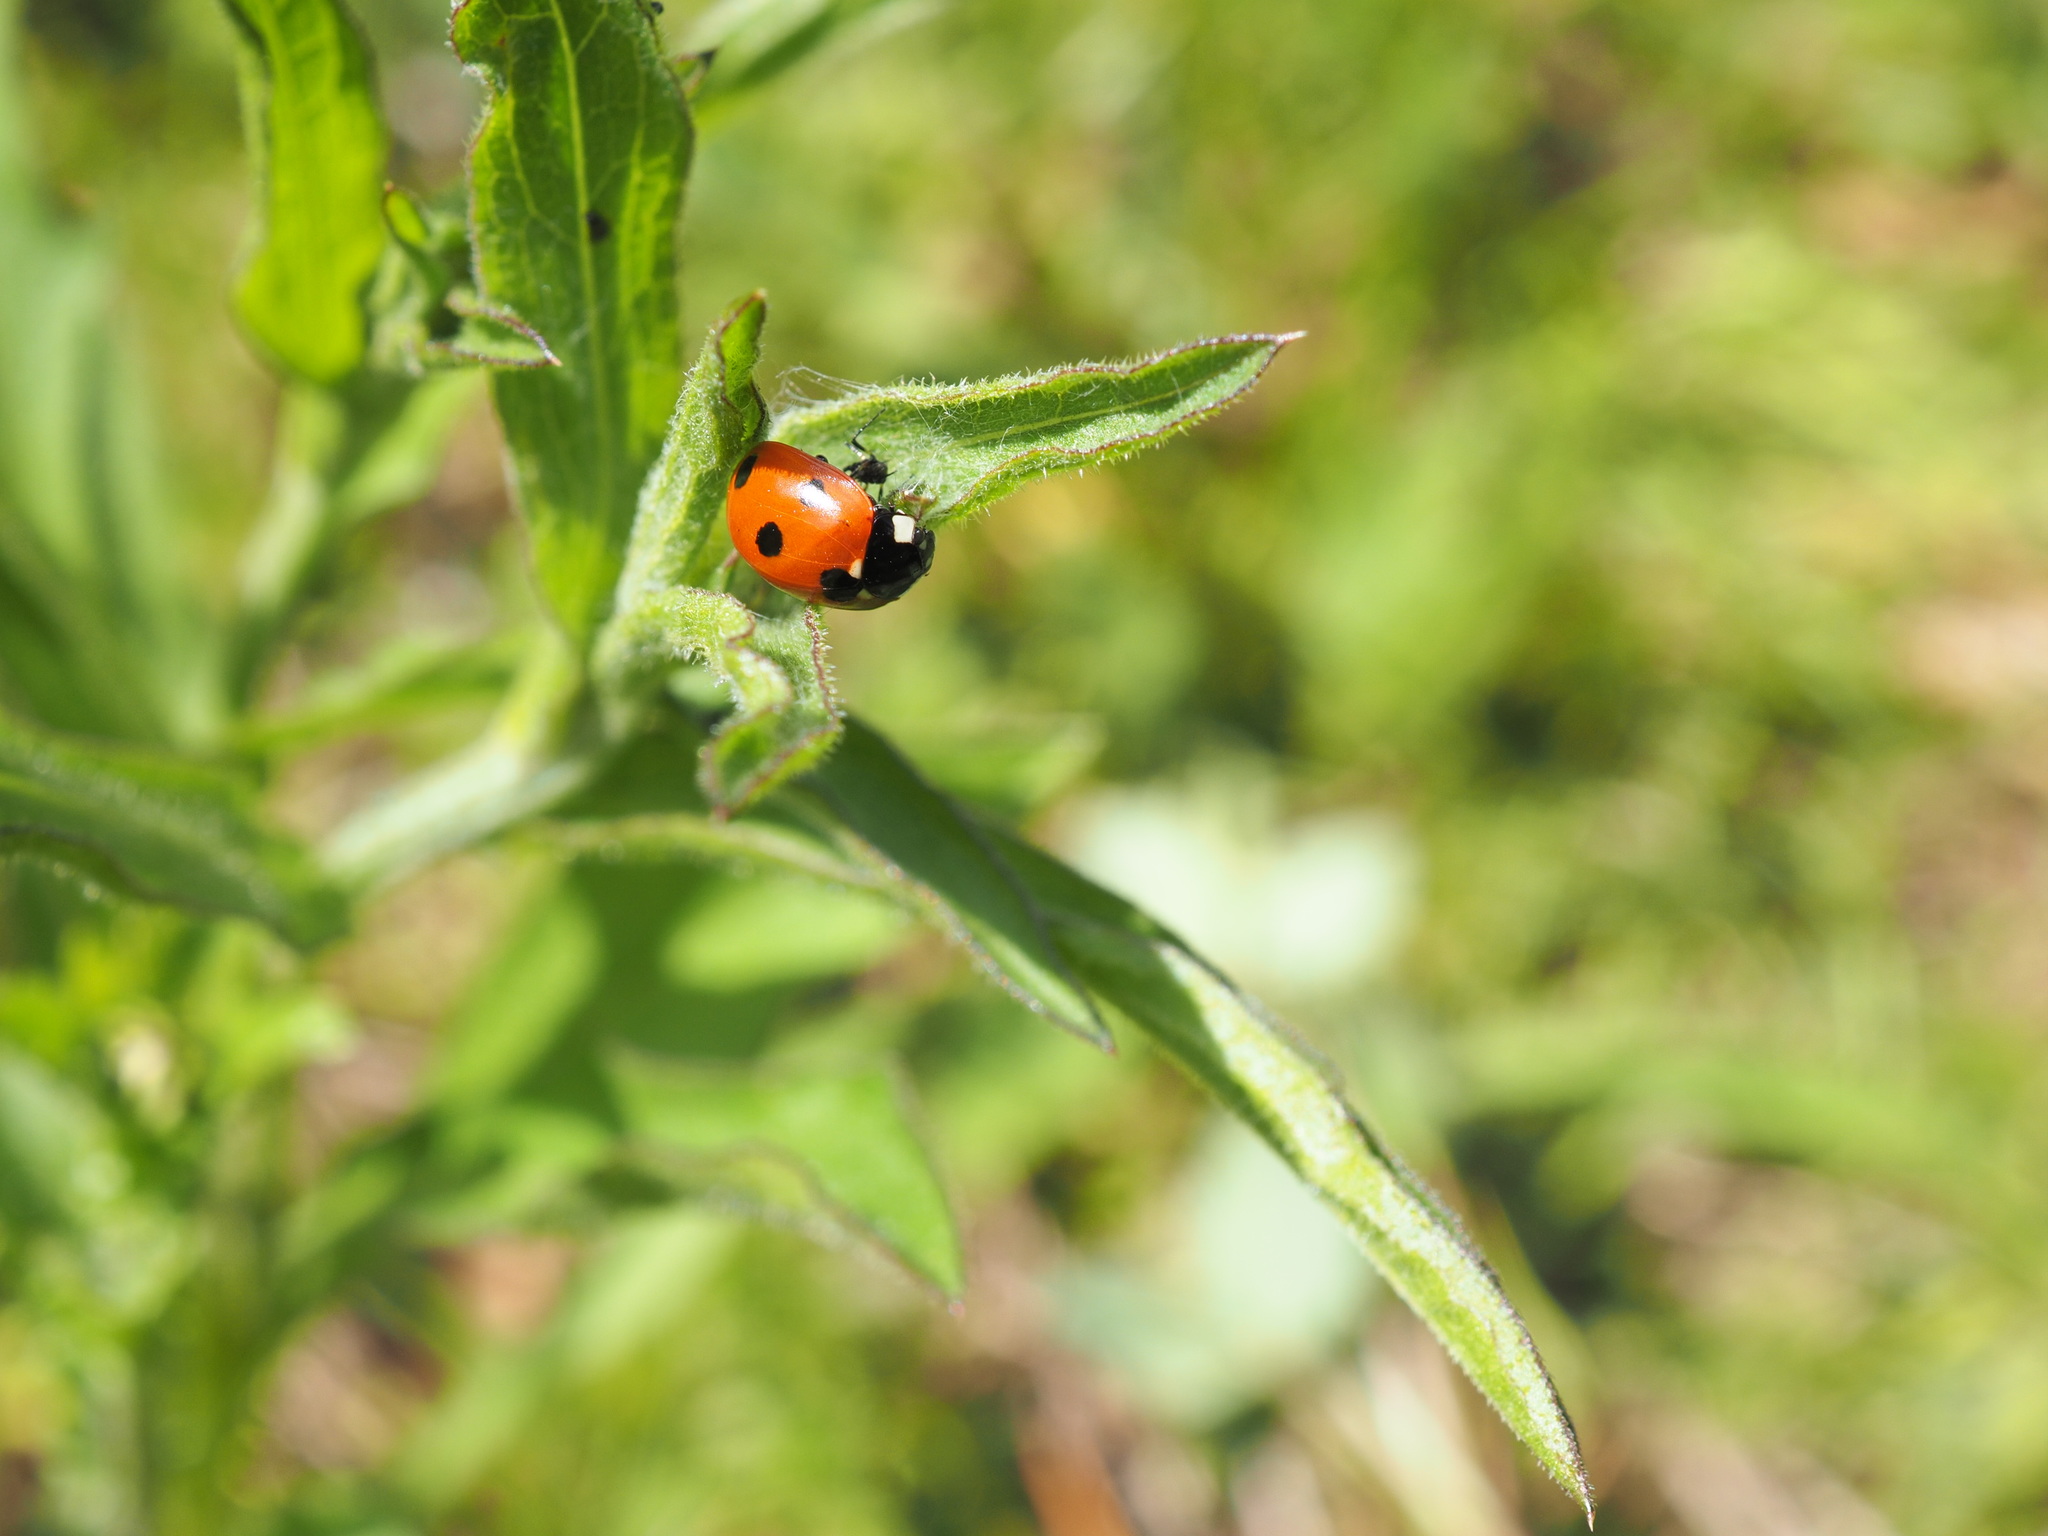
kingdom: Animalia
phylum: Arthropoda
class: Insecta
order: Coleoptera
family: Coccinellidae
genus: Coccinella
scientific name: Coccinella septempunctata
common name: Sevenspotted lady beetle
